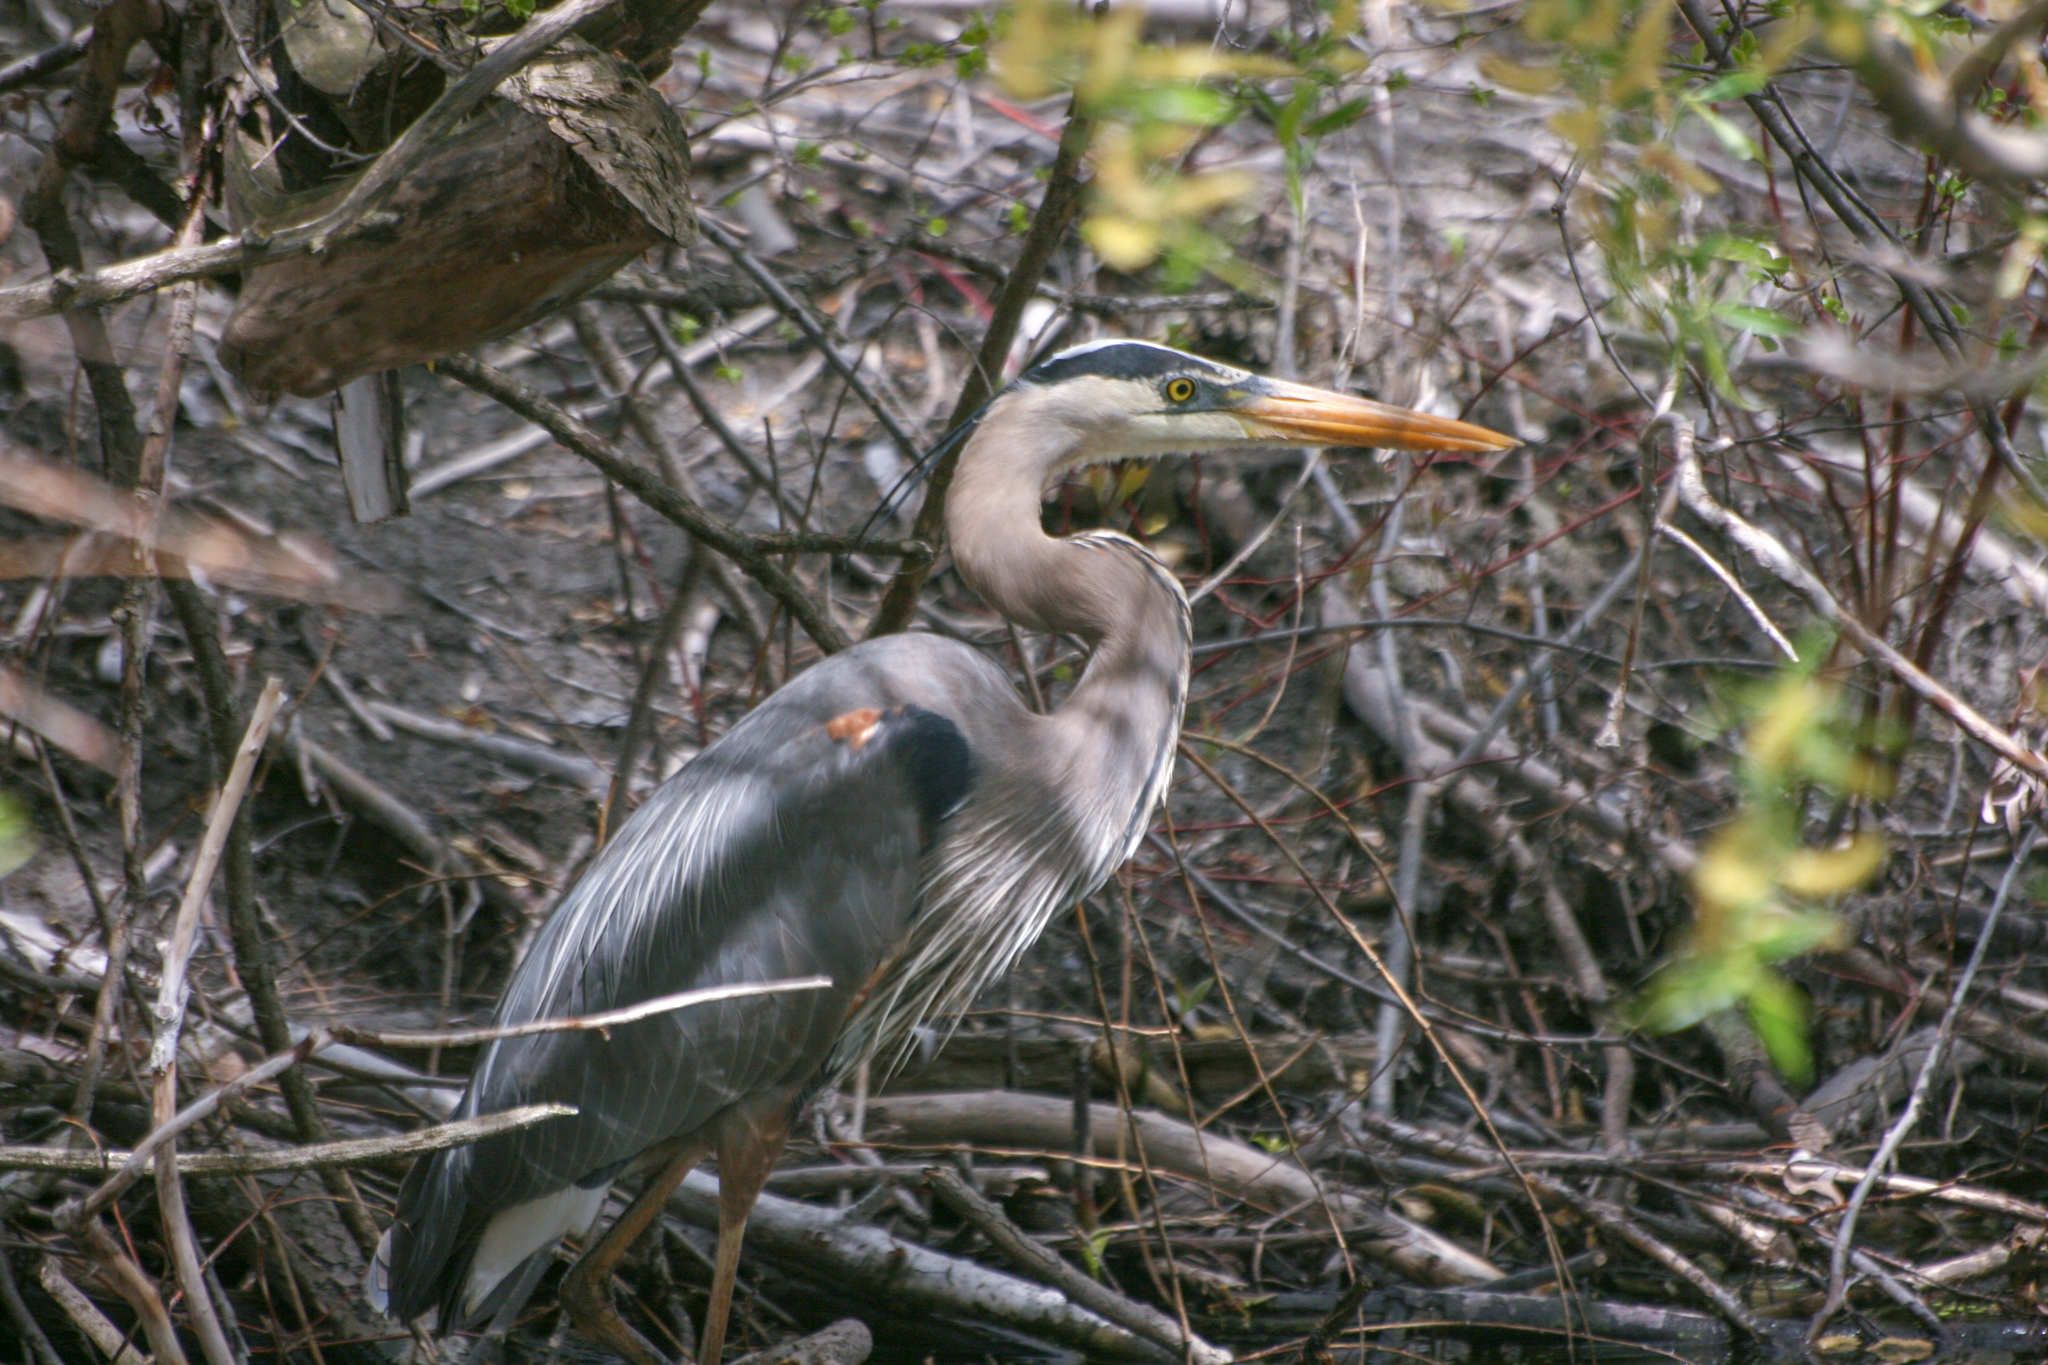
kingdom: Animalia
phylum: Chordata
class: Aves
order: Pelecaniformes
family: Ardeidae
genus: Ardea
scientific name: Ardea herodias
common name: Great blue heron
